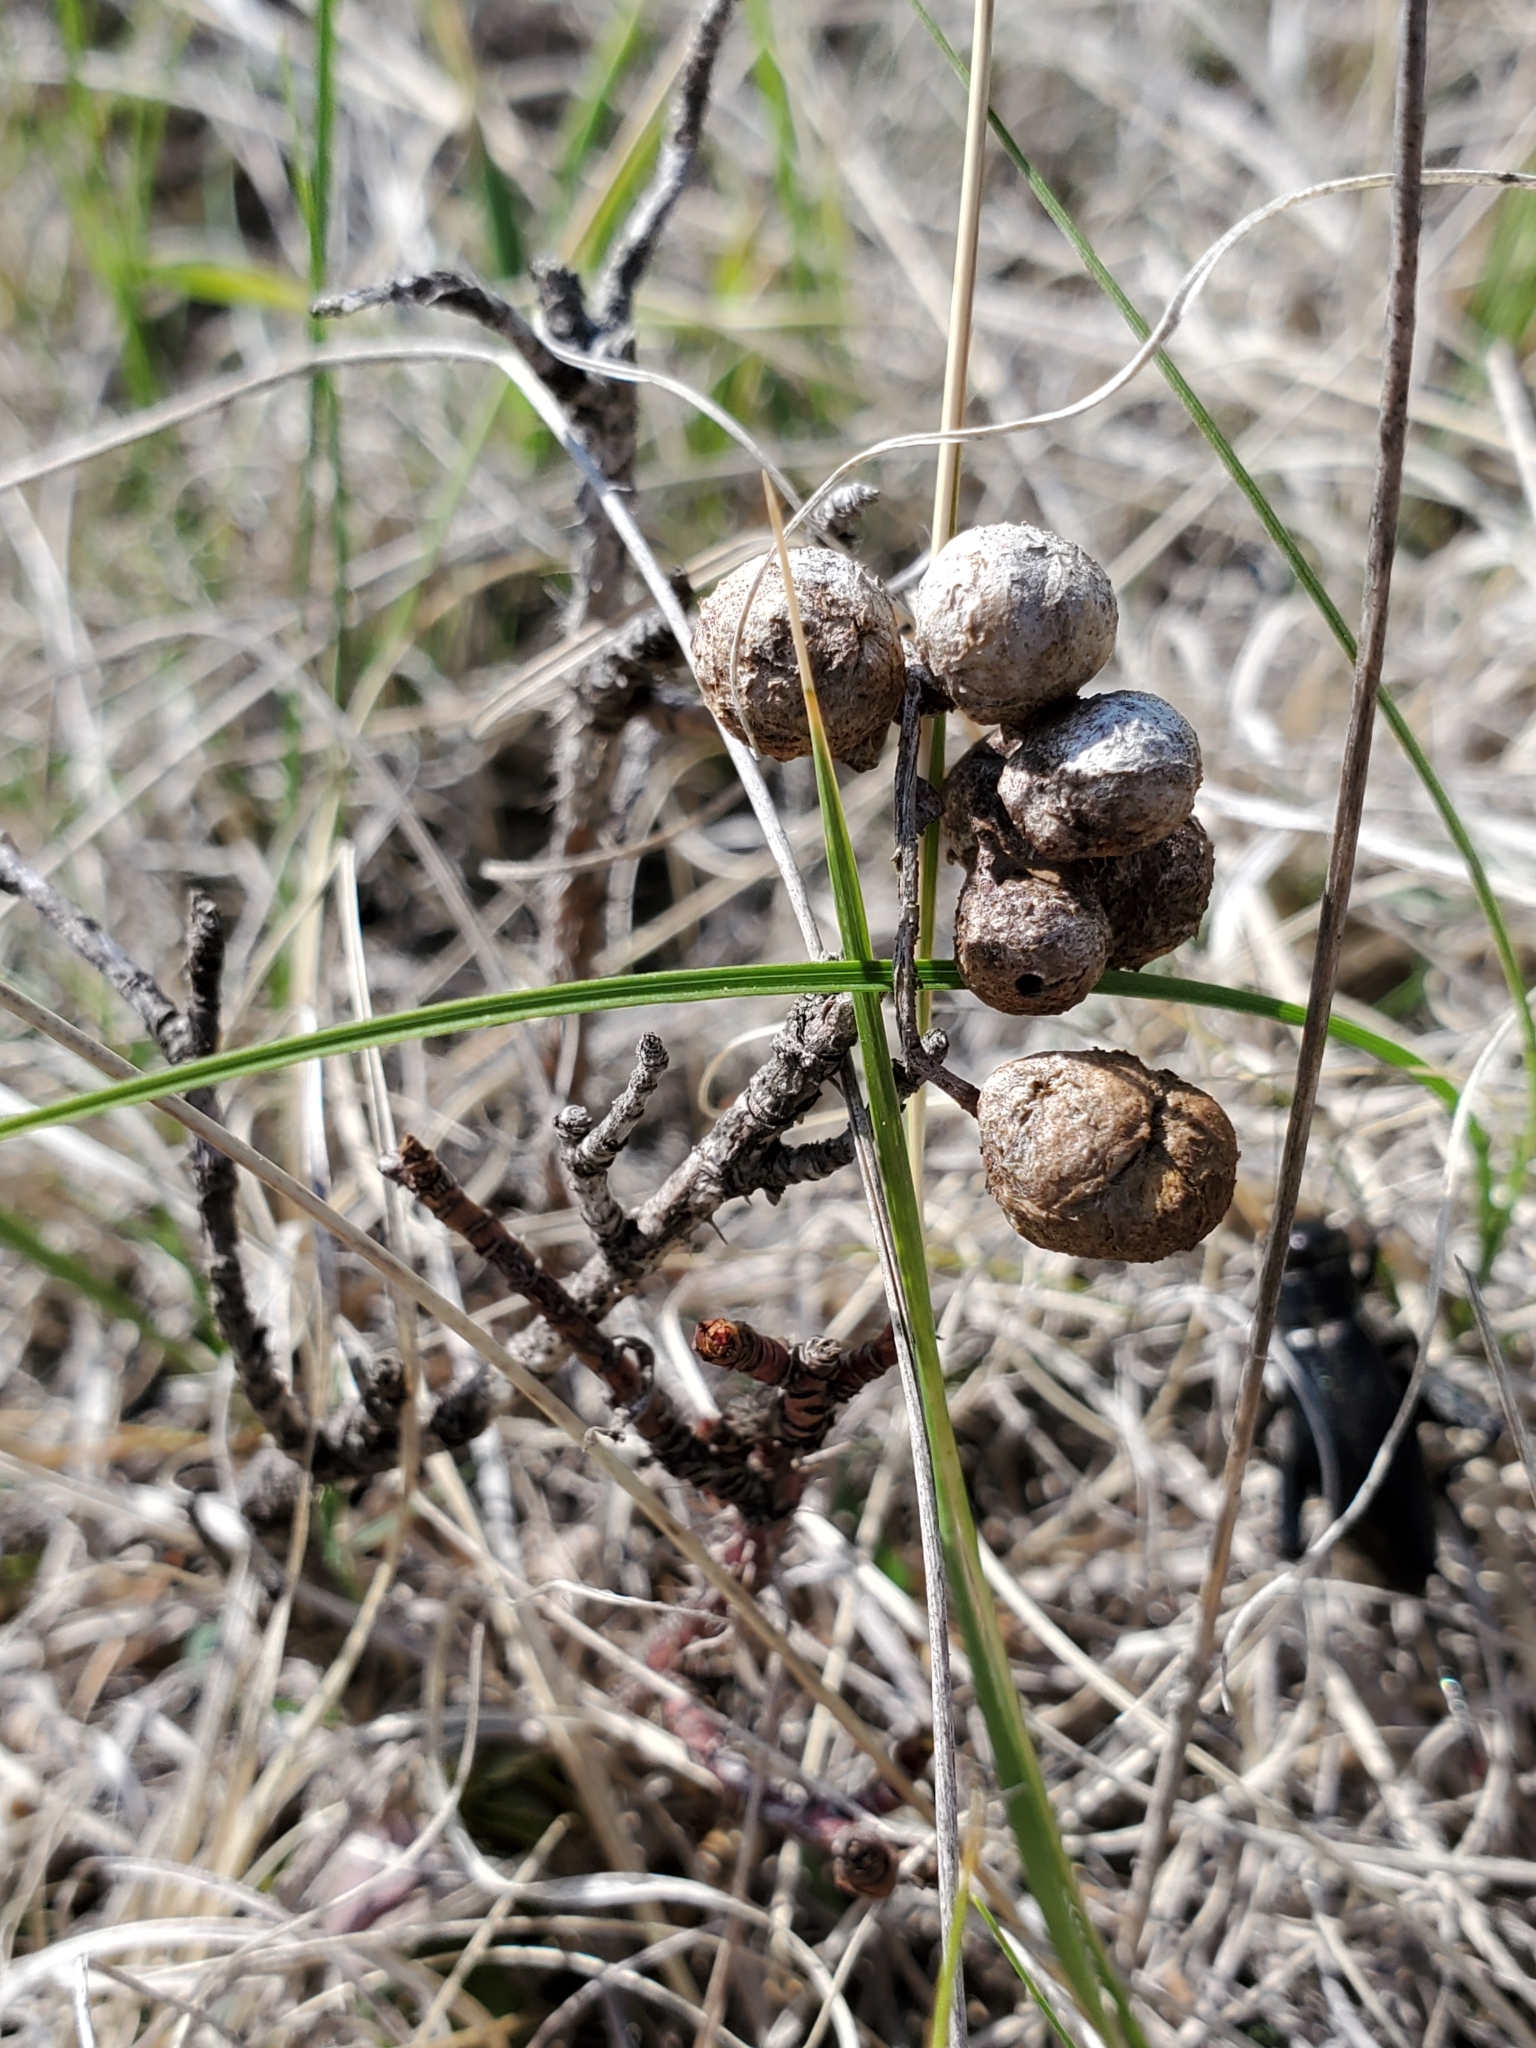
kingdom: Animalia
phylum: Arthropoda
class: Insecta
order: Hymenoptera
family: Cynipidae
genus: Diplolepis
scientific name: Diplolepis ignota
